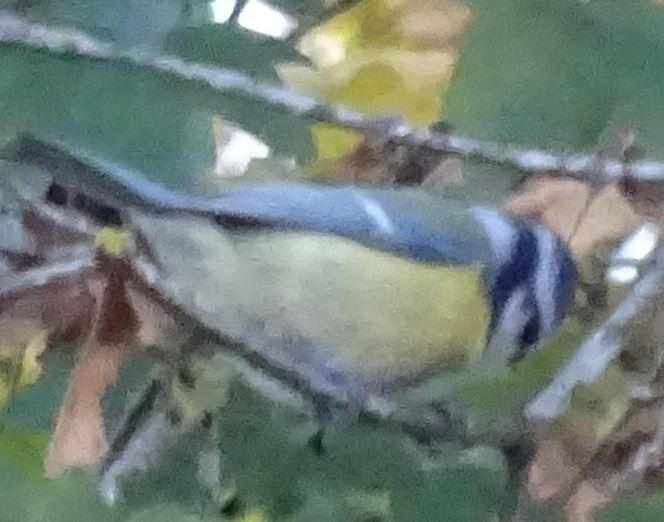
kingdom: Animalia
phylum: Chordata
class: Aves
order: Passeriformes
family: Paridae
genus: Cyanistes
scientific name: Cyanistes caeruleus
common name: Eurasian blue tit
